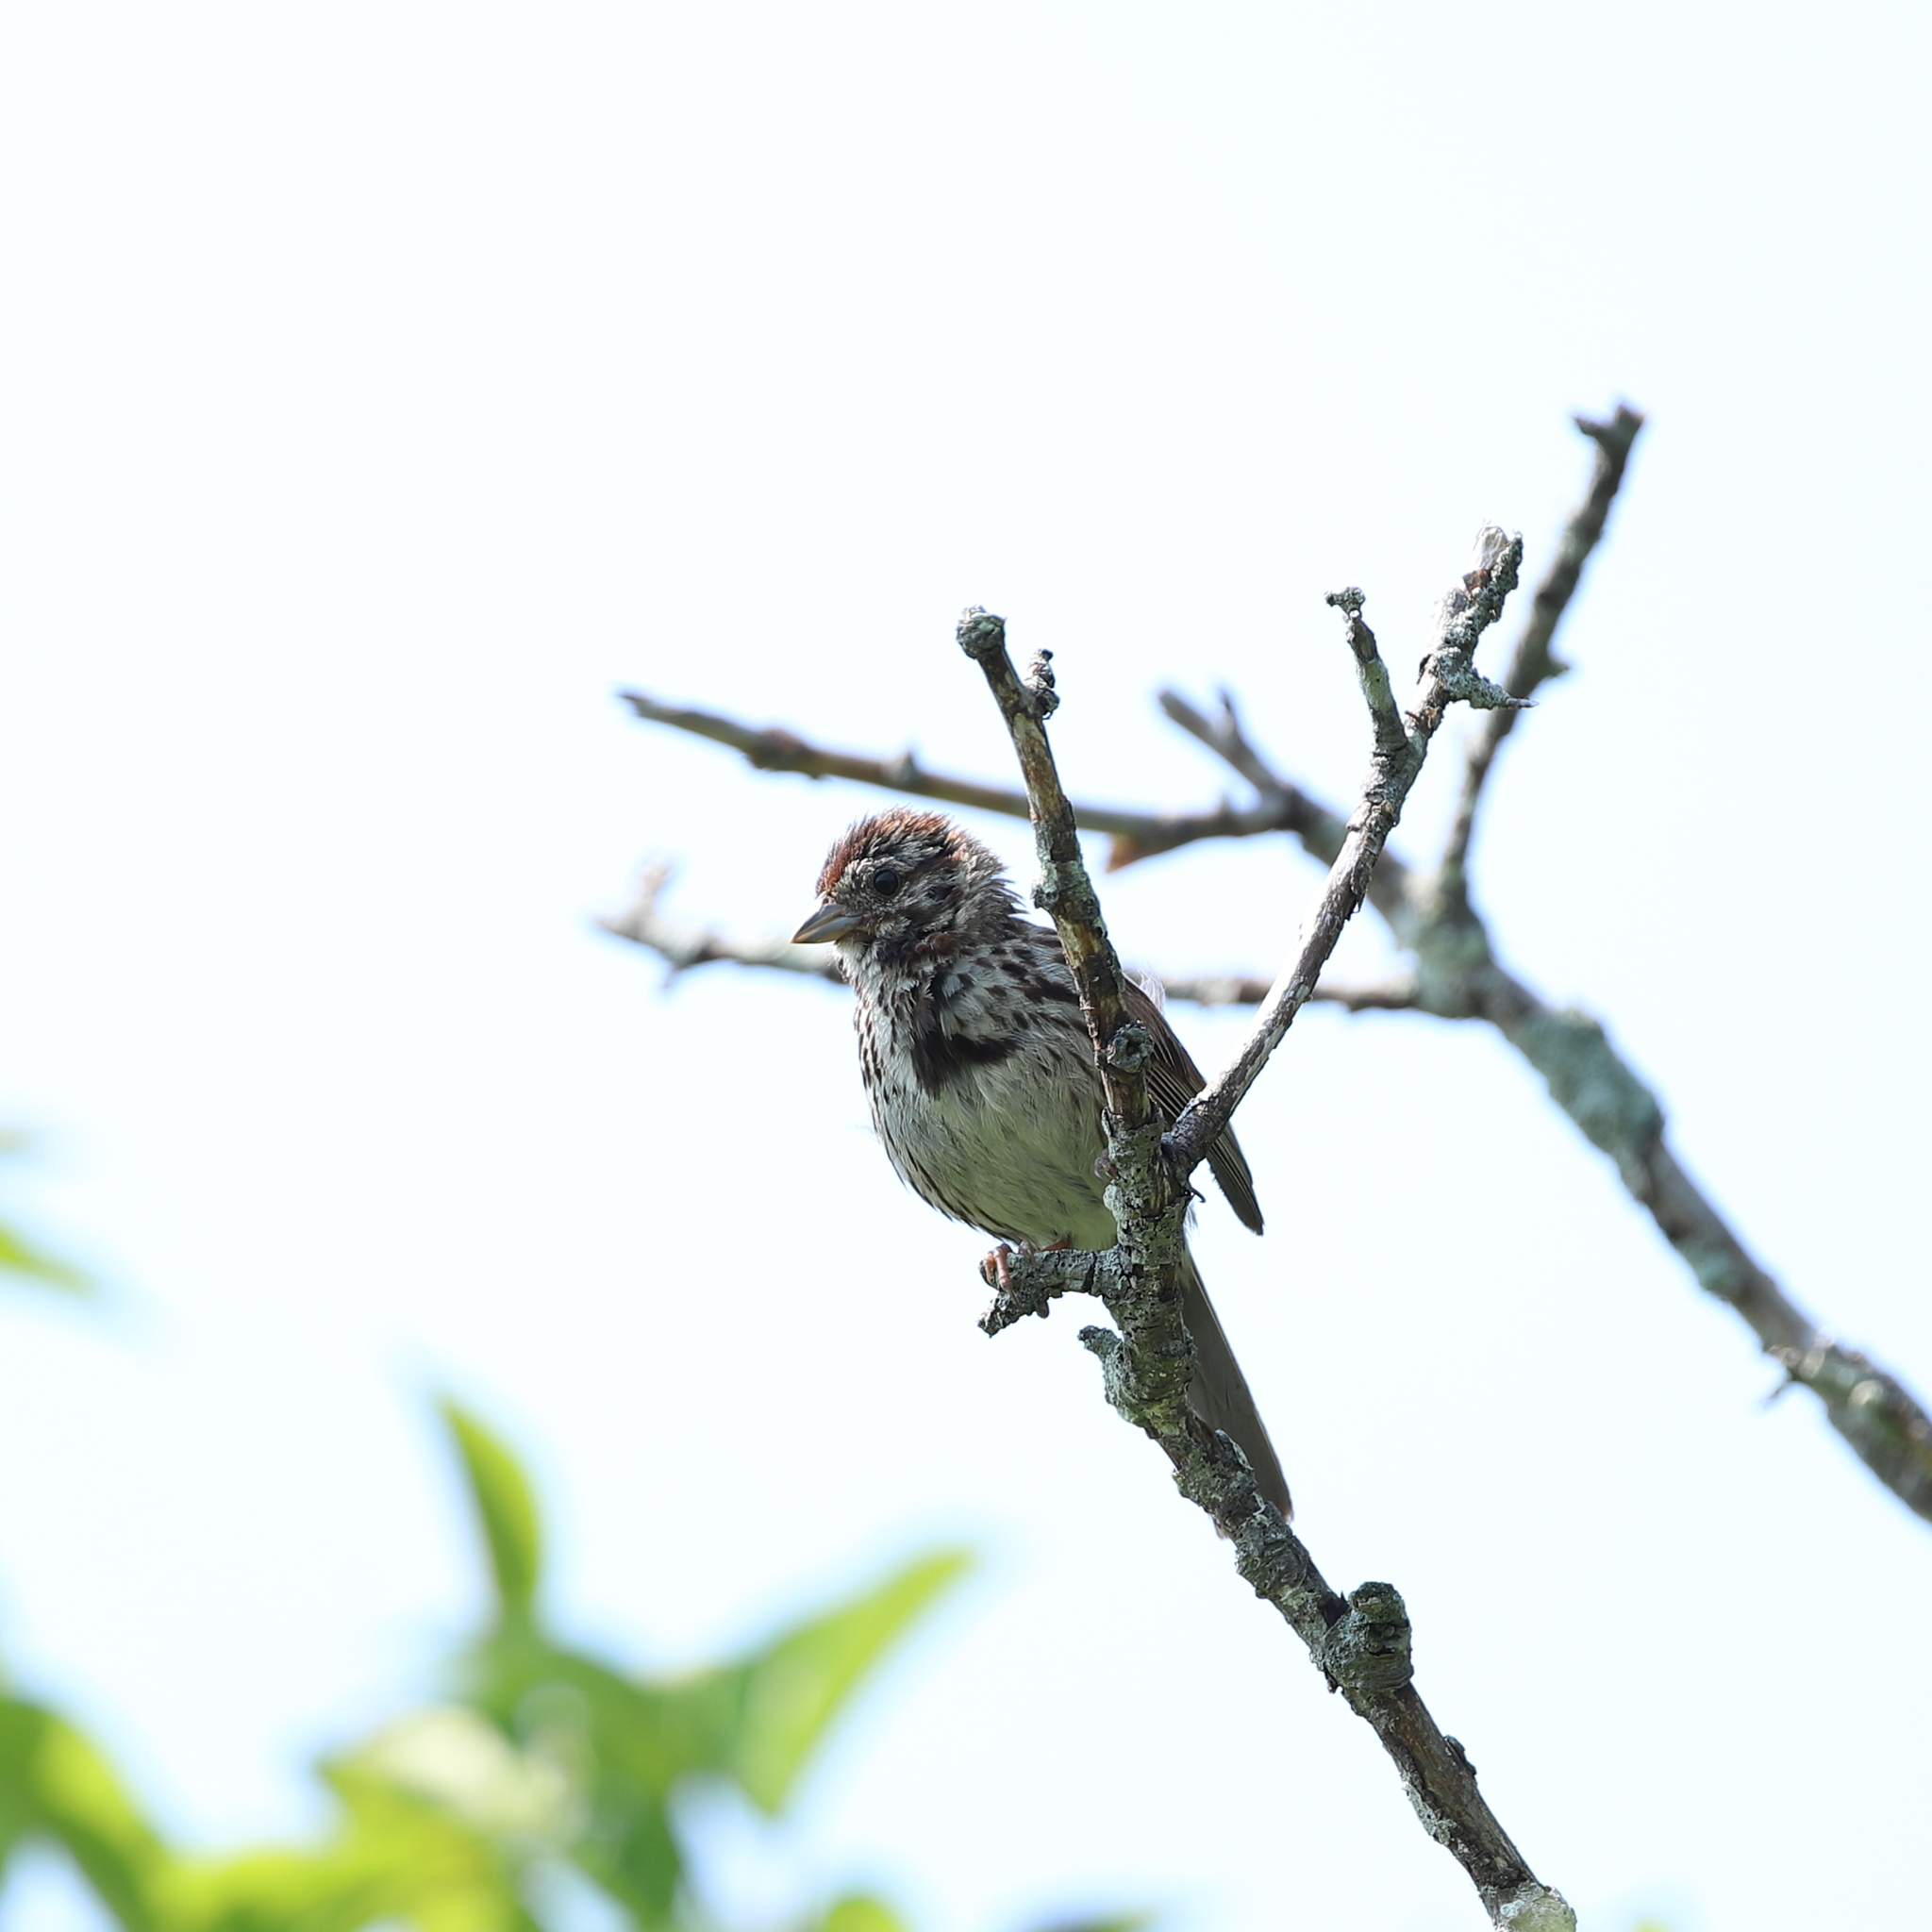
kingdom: Animalia
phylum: Chordata
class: Aves
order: Passeriformes
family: Passerellidae
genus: Melospiza
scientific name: Melospiza melodia
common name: Song sparrow
